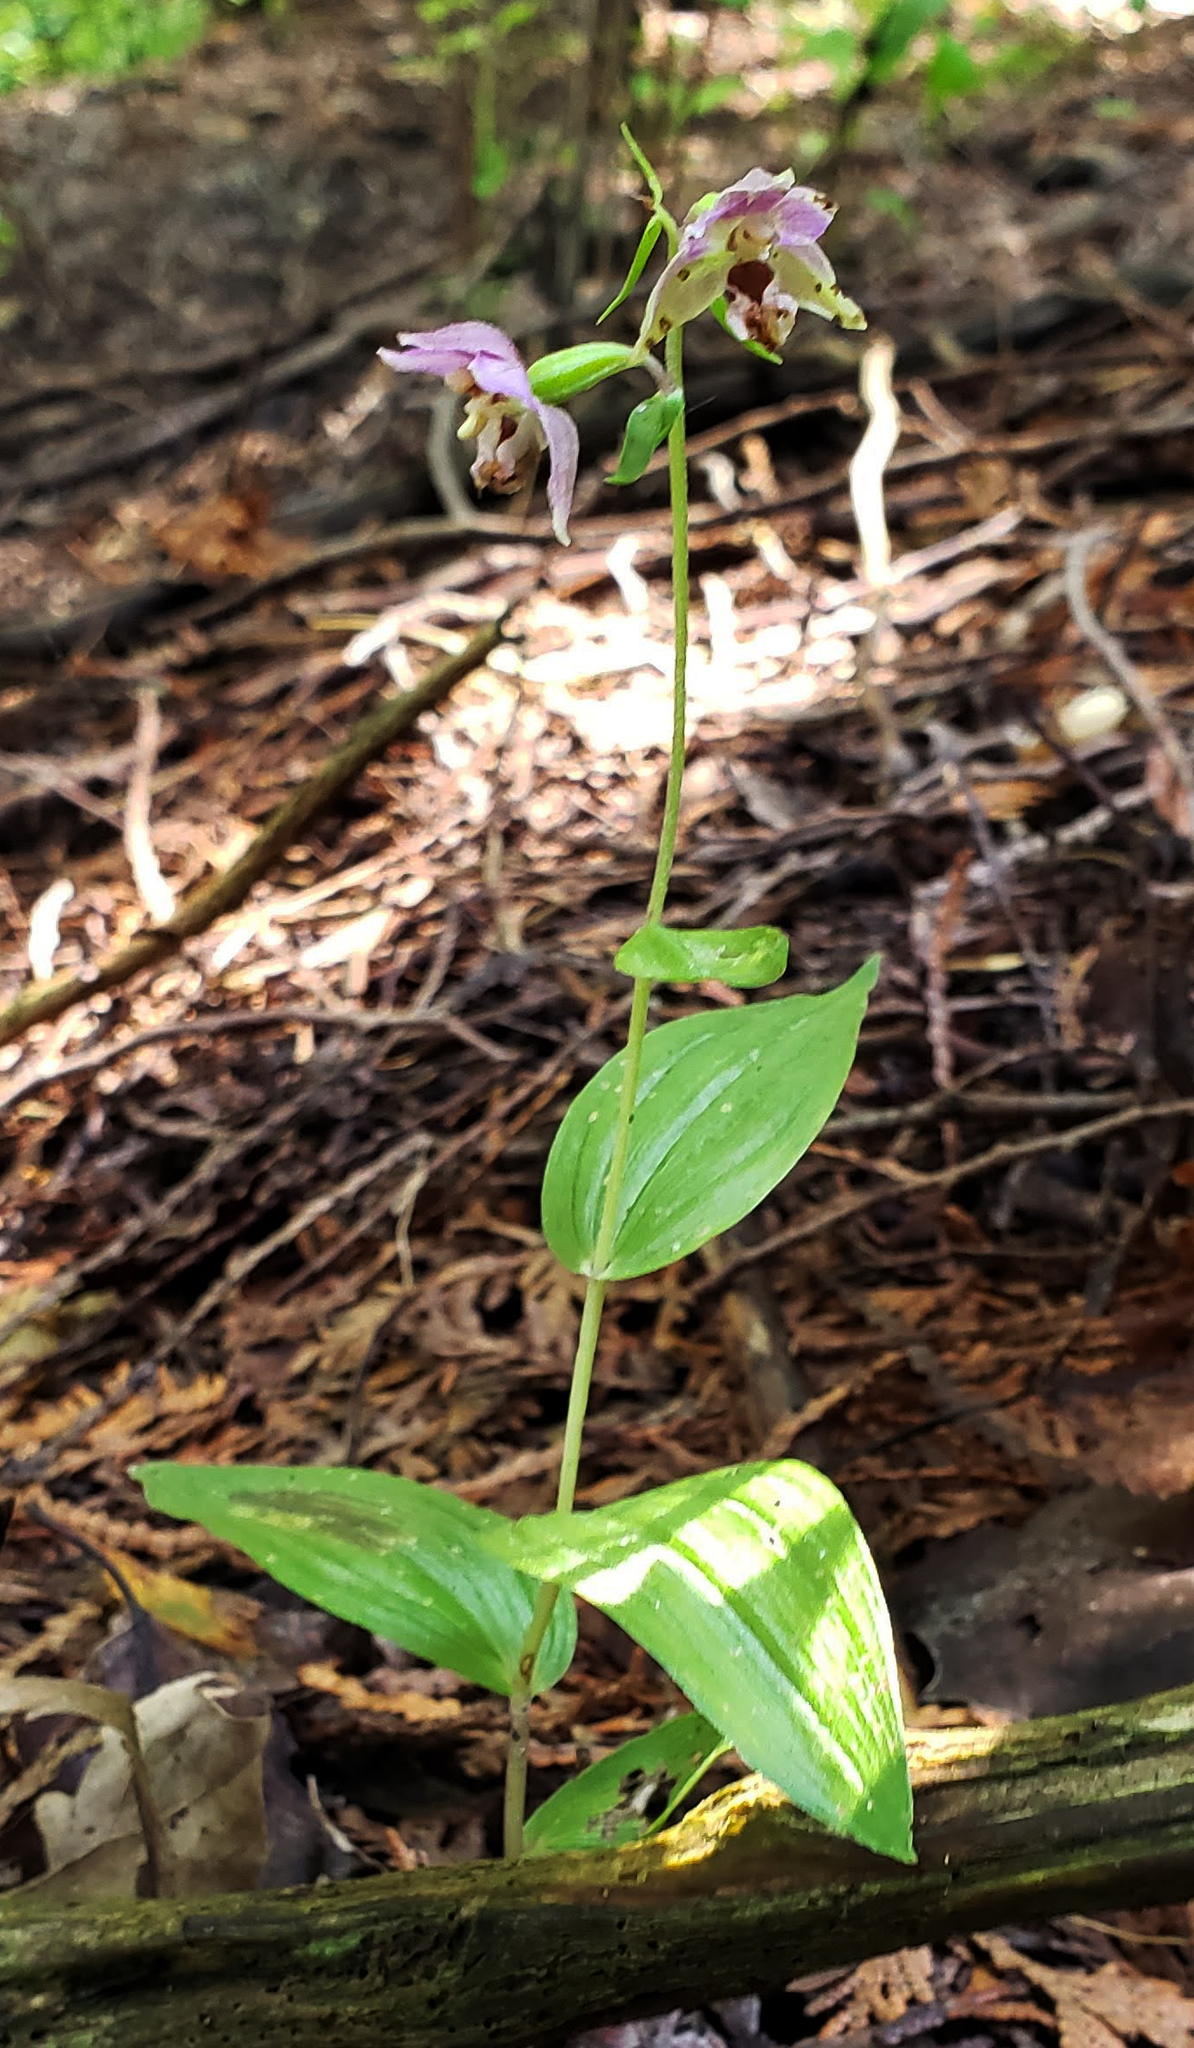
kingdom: Plantae
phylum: Tracheophyta
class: Liliopsida
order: Asparagales
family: Orchidaceae
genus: Epipactis
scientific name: Epipactis helleborine
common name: Broad-leaved helleborine
